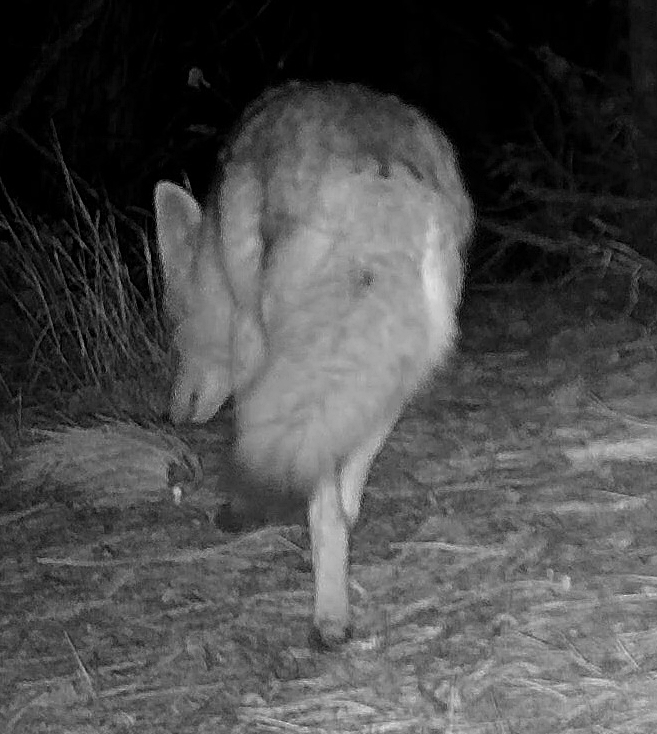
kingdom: Animalia
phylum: Chordata
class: Mammalia
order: Carnivora
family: Canidae
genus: Canis
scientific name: Canis latrans
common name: Coyote
